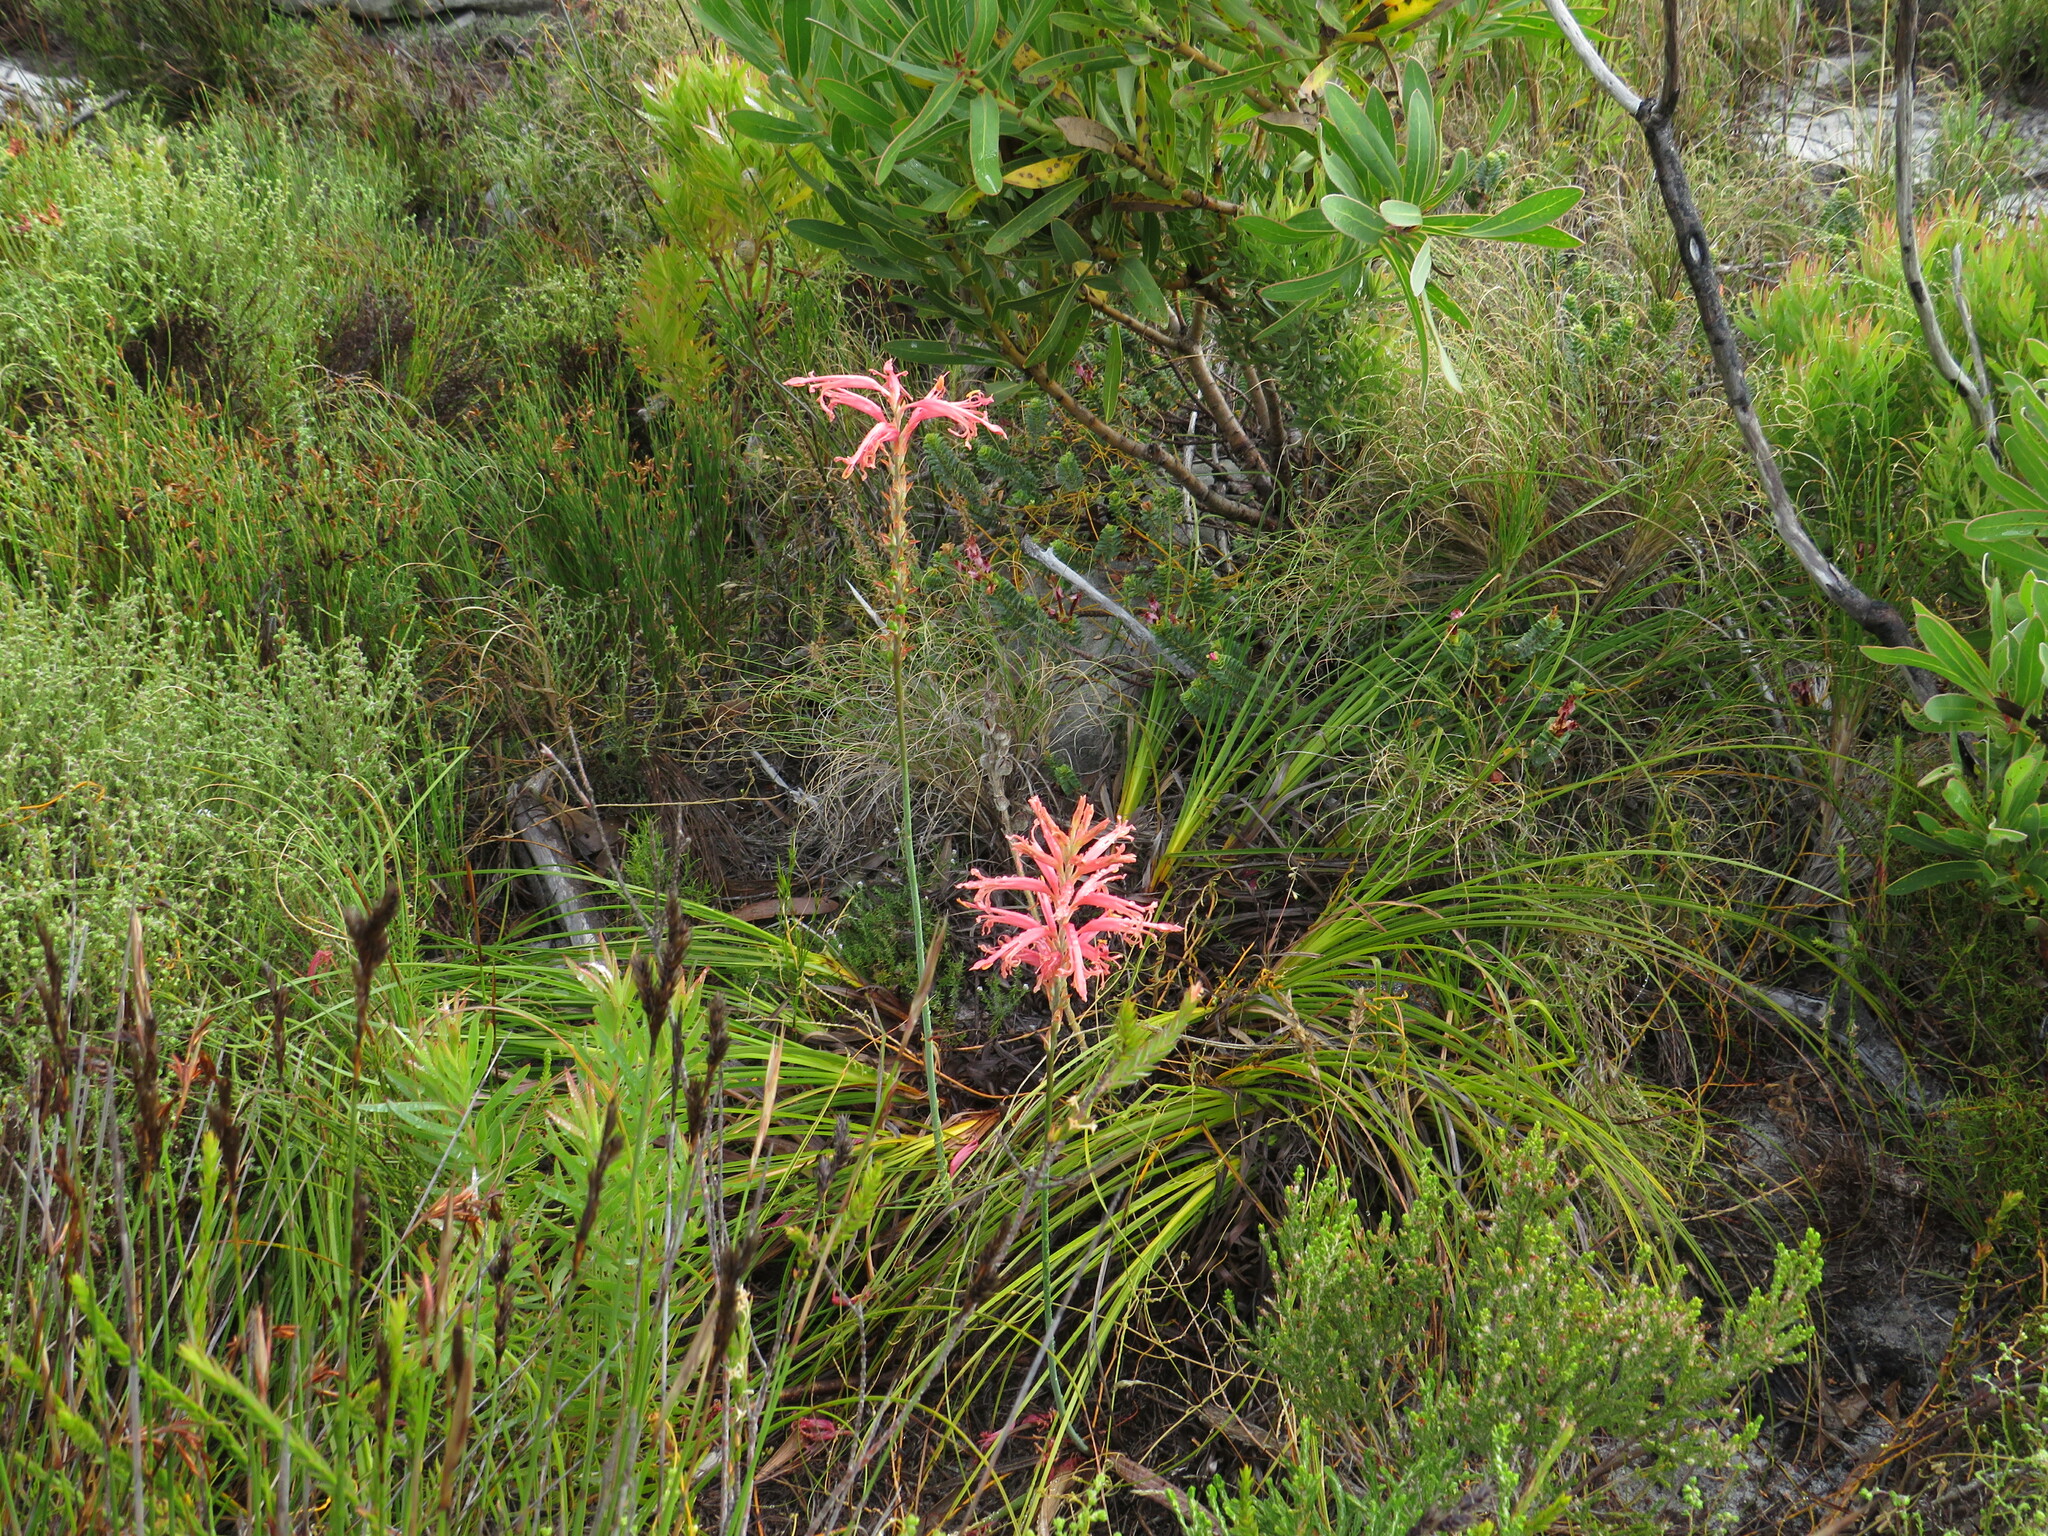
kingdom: Plantae
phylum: Tracheophyta
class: Liliopsida
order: Asparagales
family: Iridaceae
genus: Tritoniopsis
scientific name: Tritoniopsis antholyza
